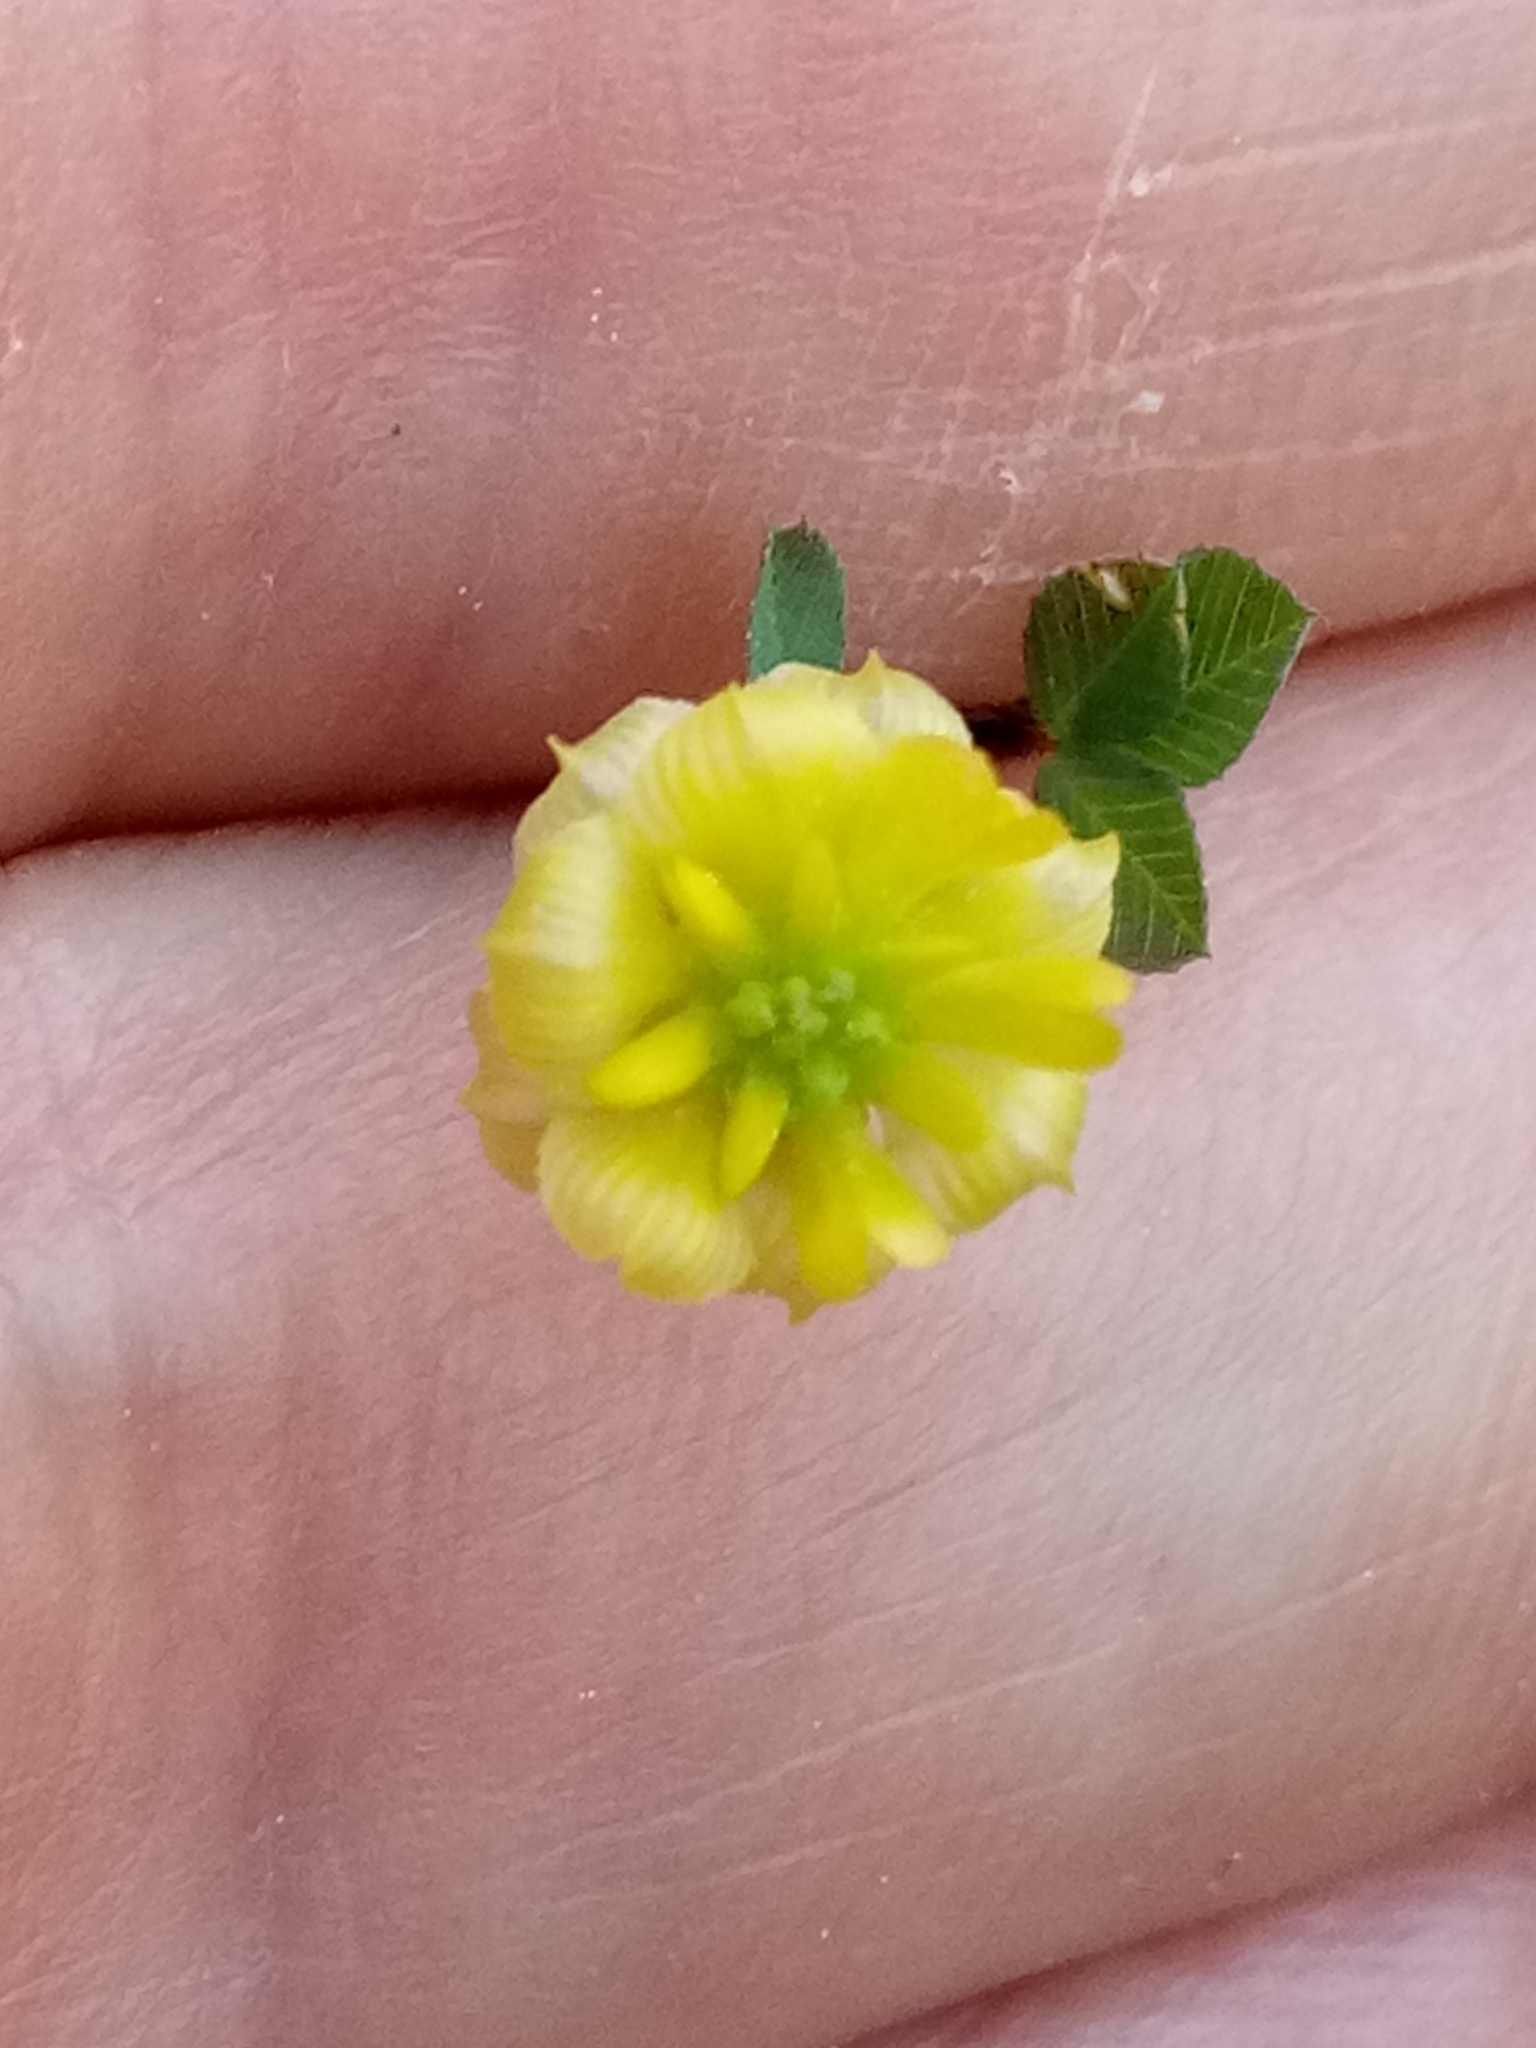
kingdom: Plantae
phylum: Tracheophyta
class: Magnoliopsida
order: Fabales
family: Fabaceae
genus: Trifolium
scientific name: Trifolium campestre
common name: Field clover
